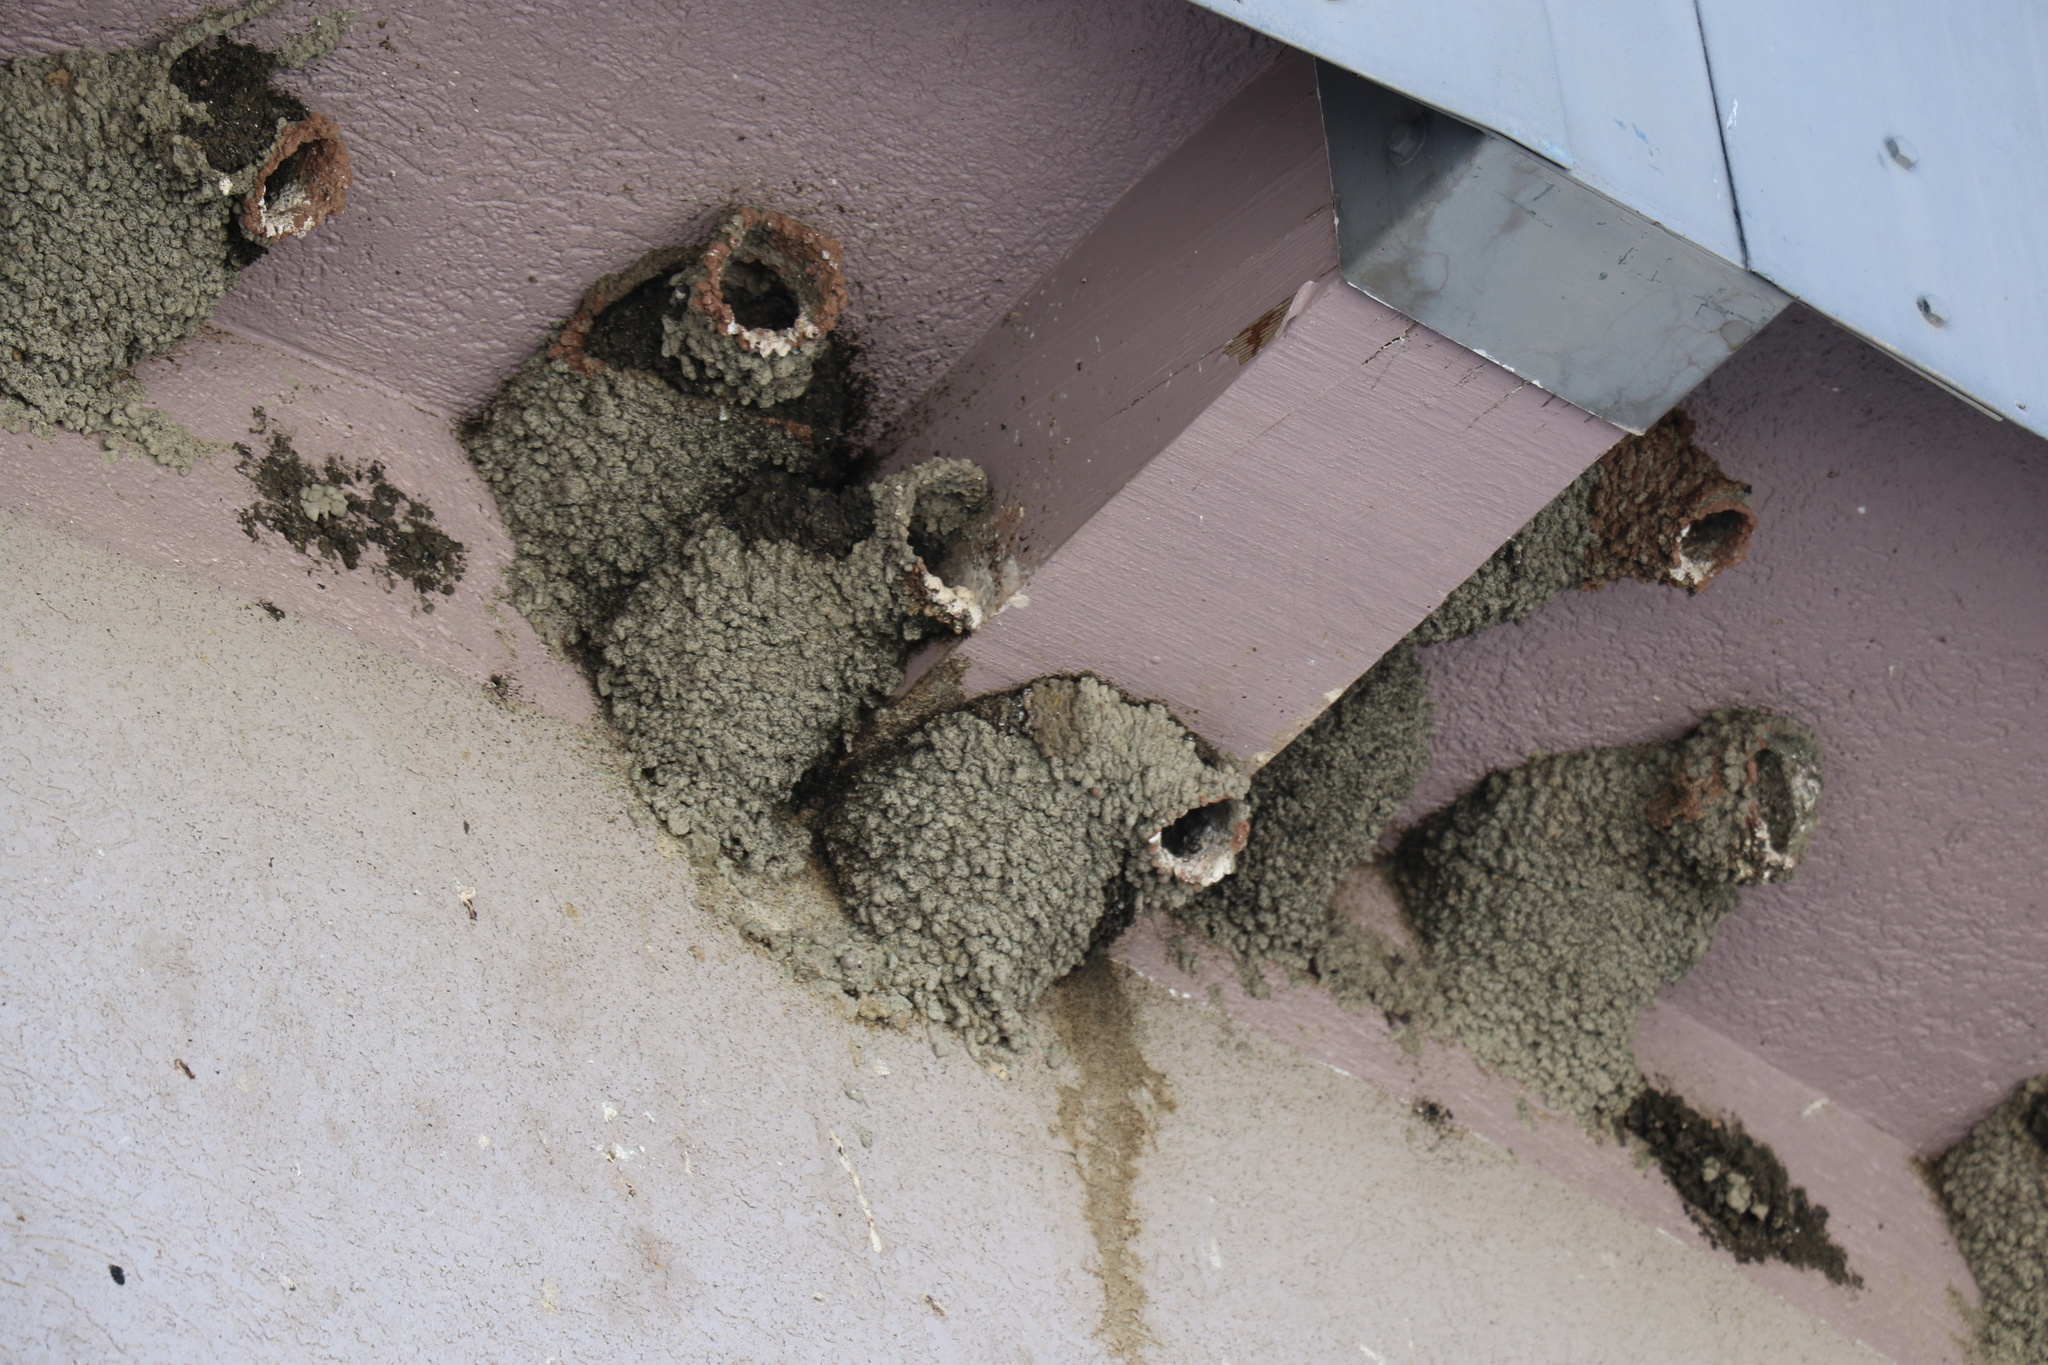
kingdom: Animalia
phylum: Chordata
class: Aves
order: Passeriformes
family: Hirundinidae
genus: Petrochelidon
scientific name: Petrochelidon pyrrhonota
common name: American cliff swallow
